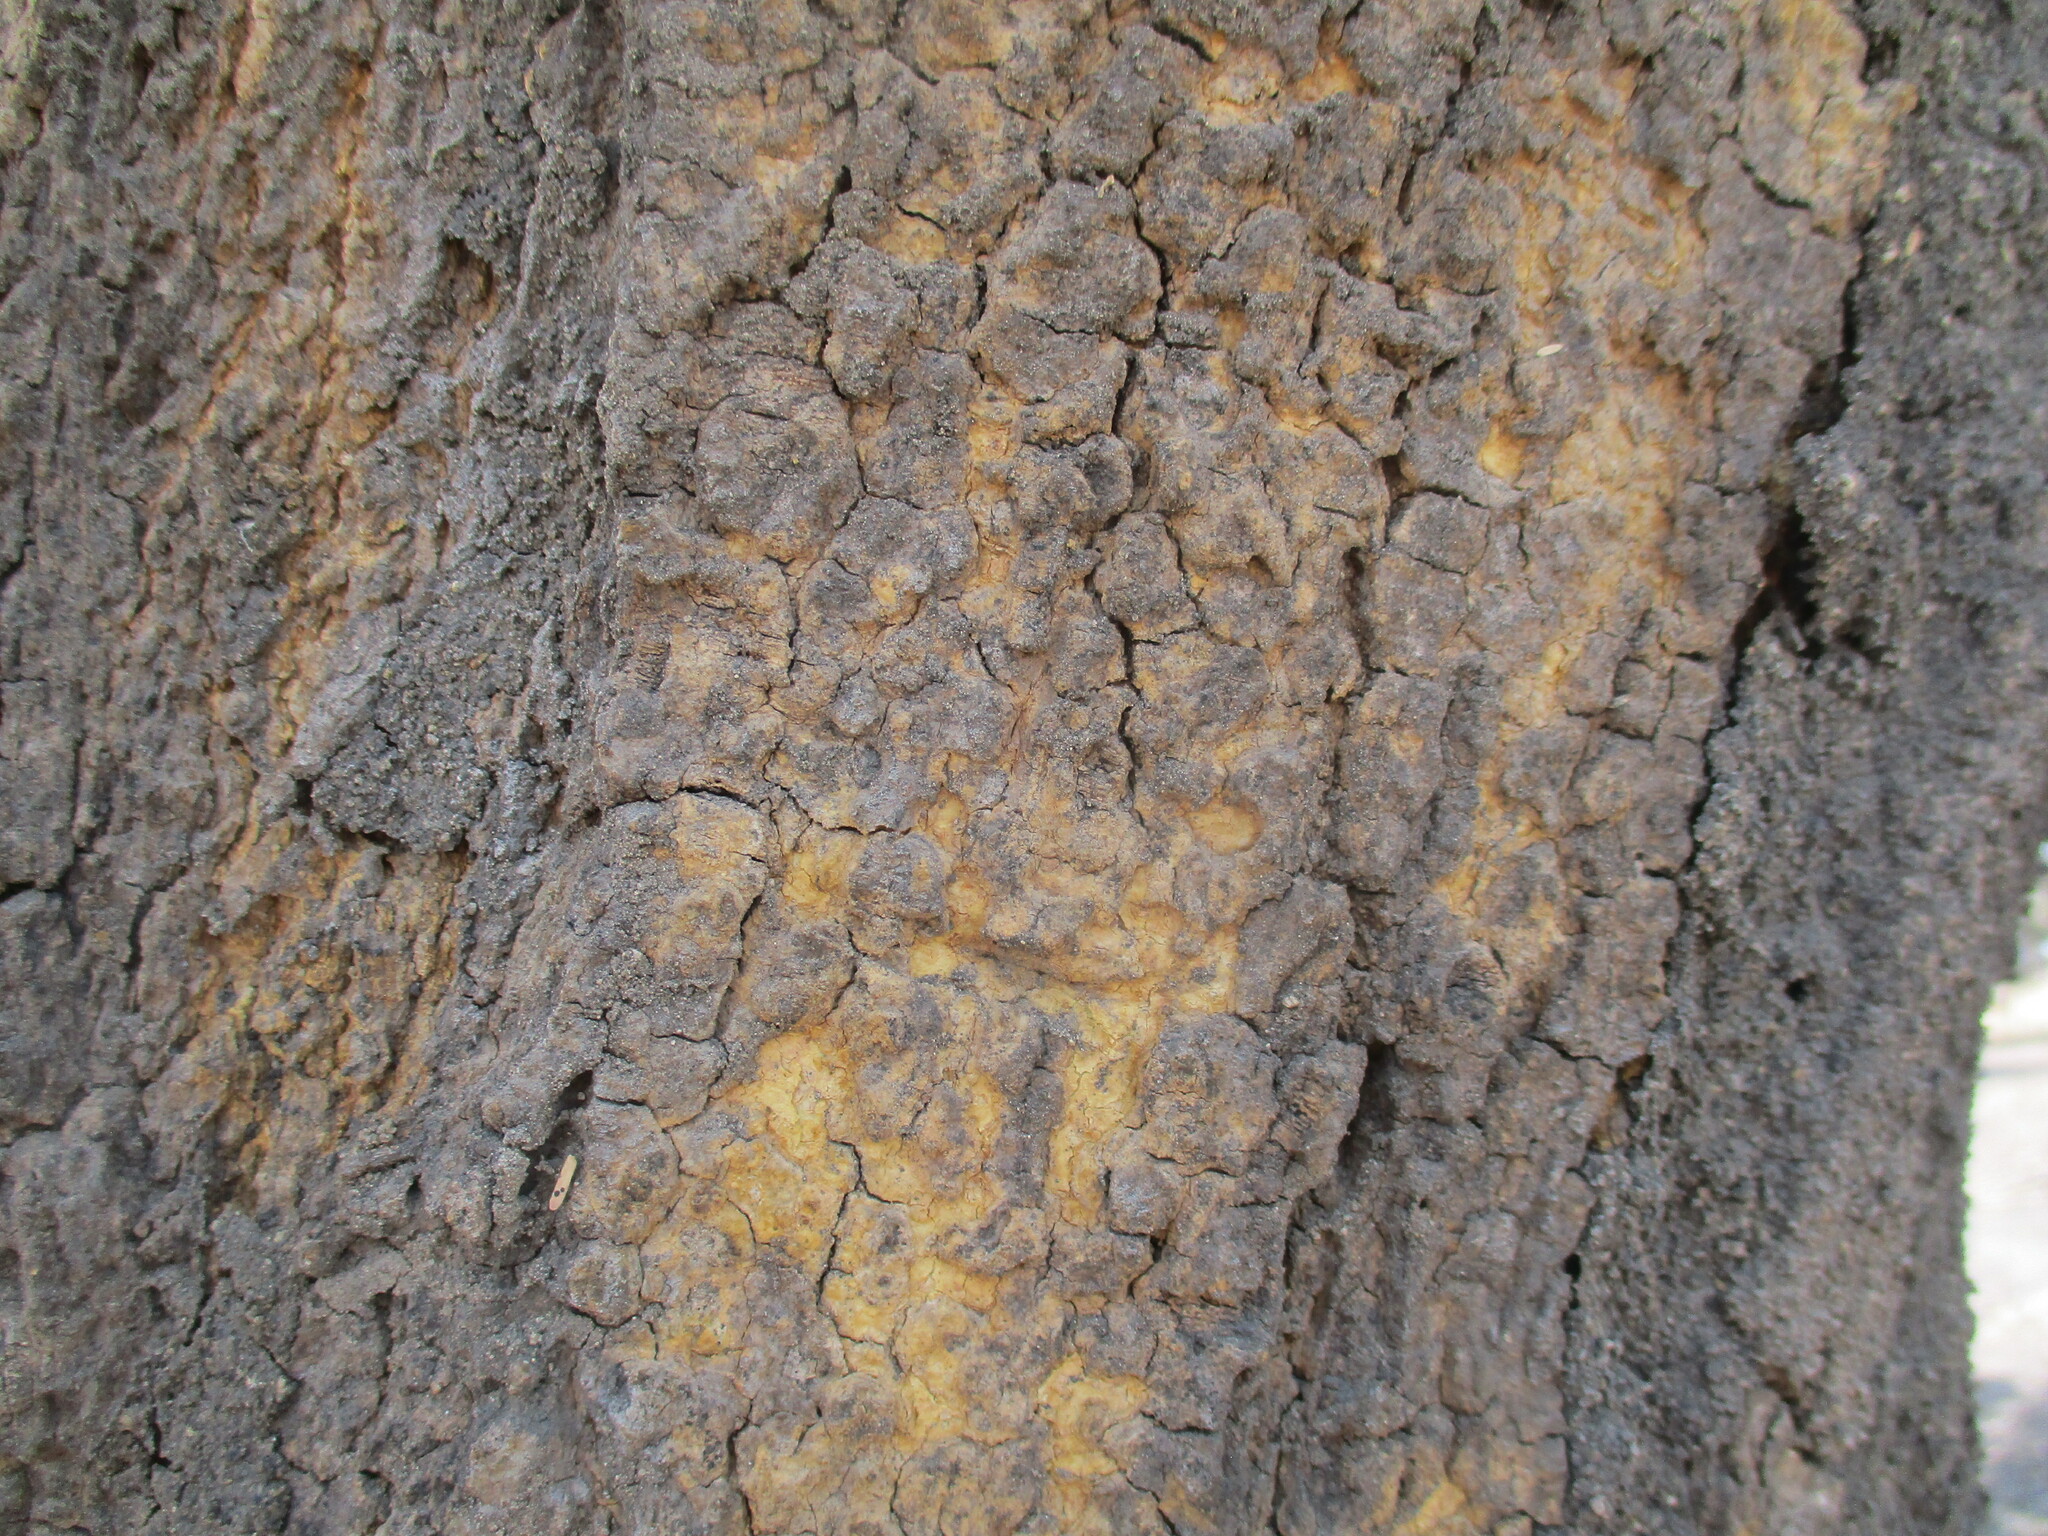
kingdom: Plantae
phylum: Tracheophyta
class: Magnoliopsida
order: Fabales
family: Fabaceae
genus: Vachellia
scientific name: Vachellia sieberiana
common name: Flat-topped thorn
